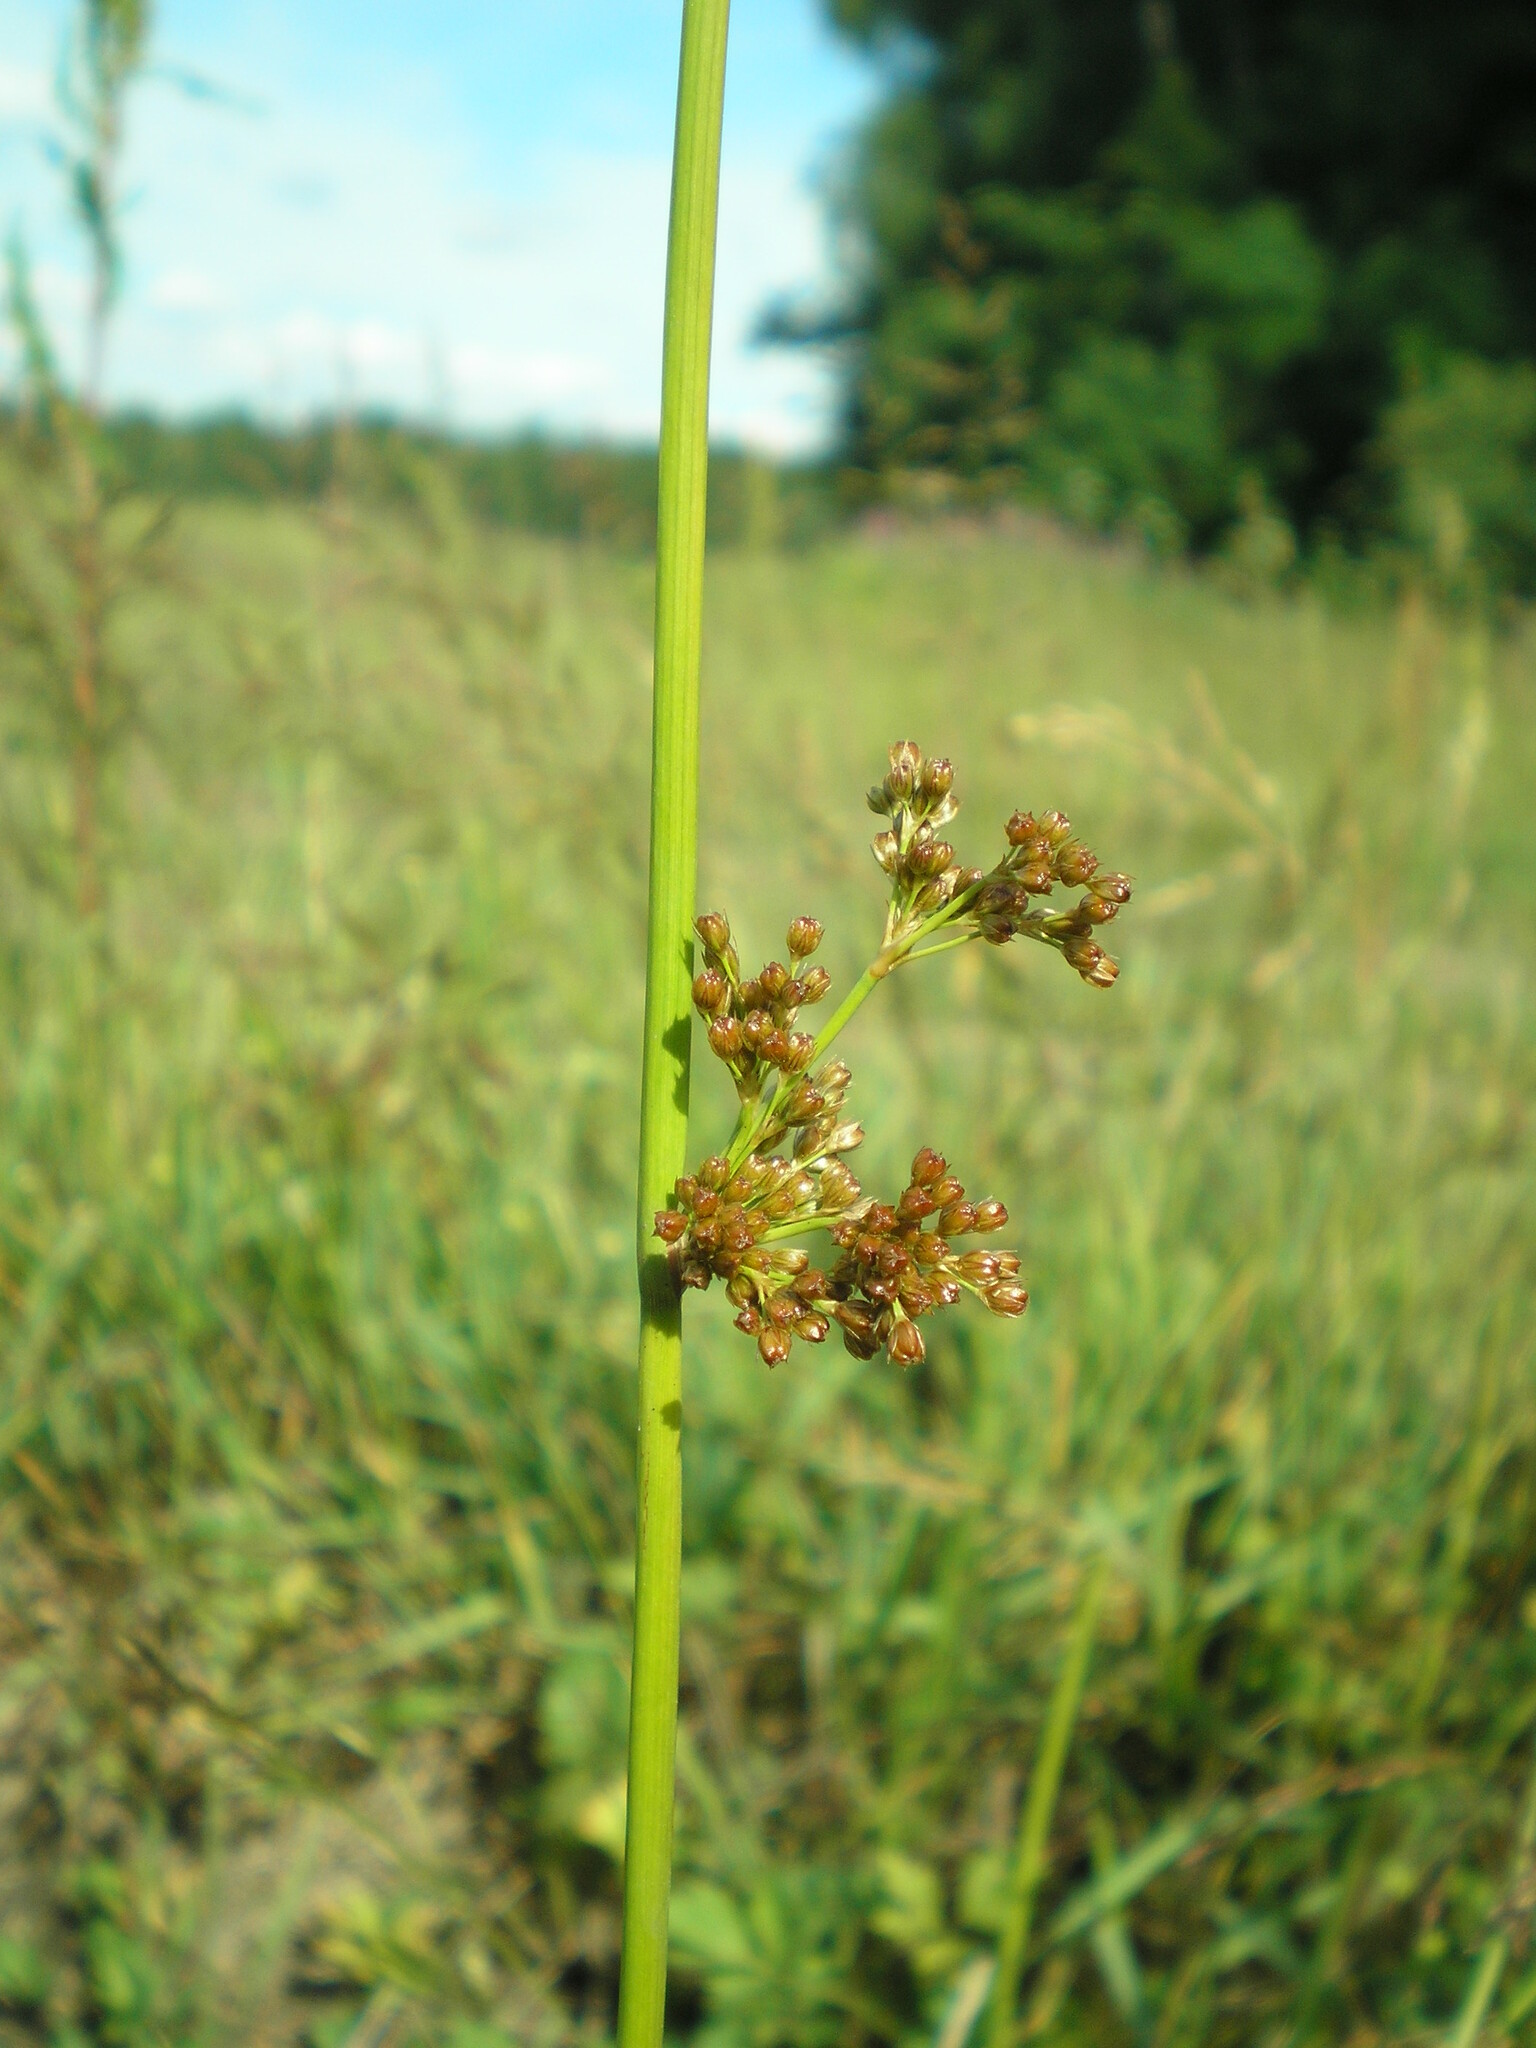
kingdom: Plantae
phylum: Tracheophyta
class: Liliopsida
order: Poales
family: Juncaceae
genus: Juncus
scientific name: Juncus effusus
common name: Soft rush
